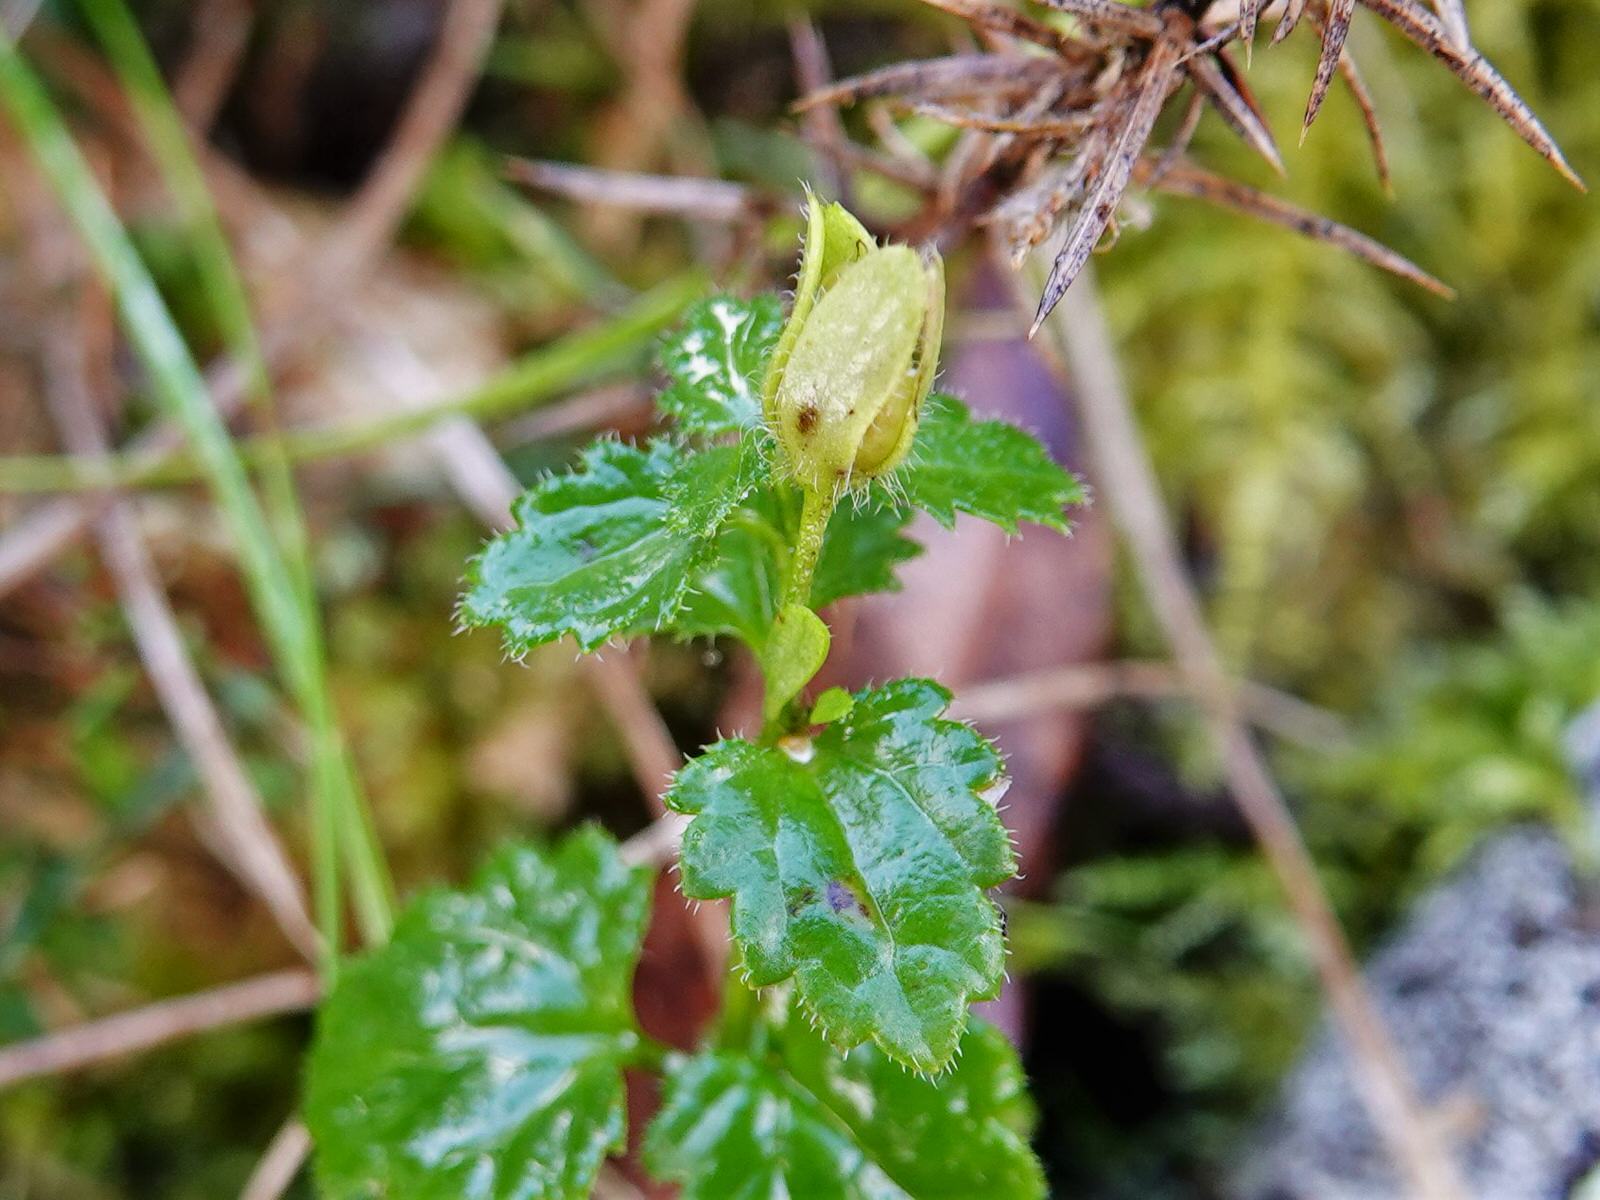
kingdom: Plantae
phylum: Tracheophyta
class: Magnoliopsida
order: Lamiales
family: Plantaginaceae
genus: Veronica
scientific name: Veronica calycina
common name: Cup speedwell
